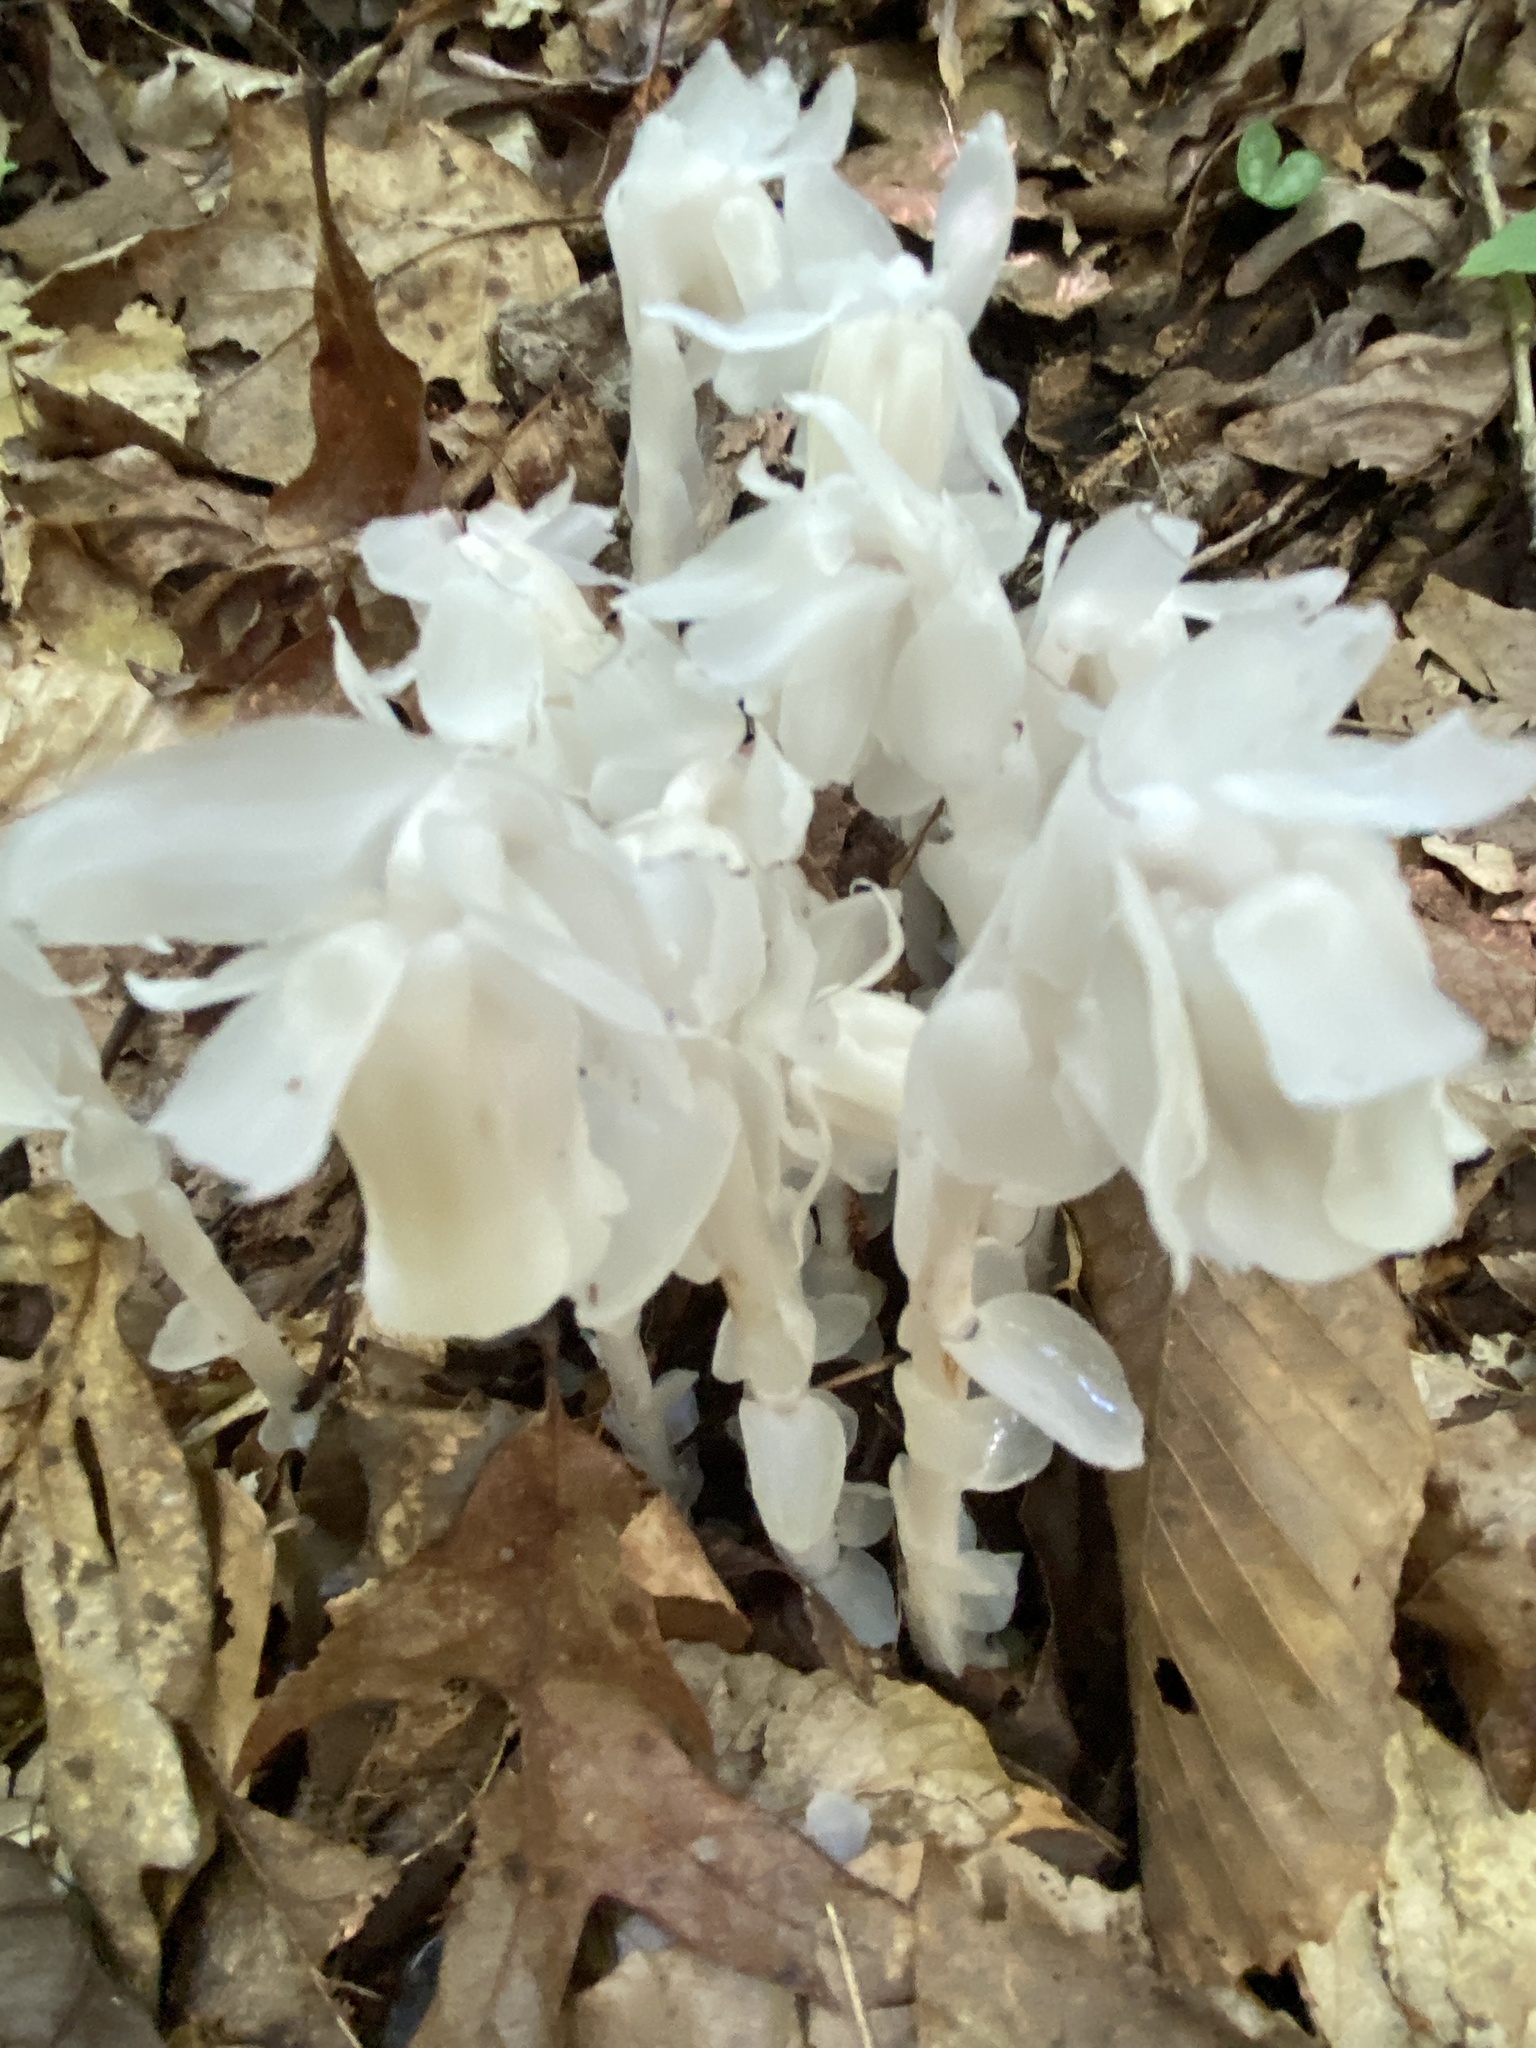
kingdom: Plantae
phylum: Tracheophyta
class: Magnoliopsida
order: Ericales
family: Ericaceae
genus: Monotropa
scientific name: Monotropa uniflora
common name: Convulsion root
